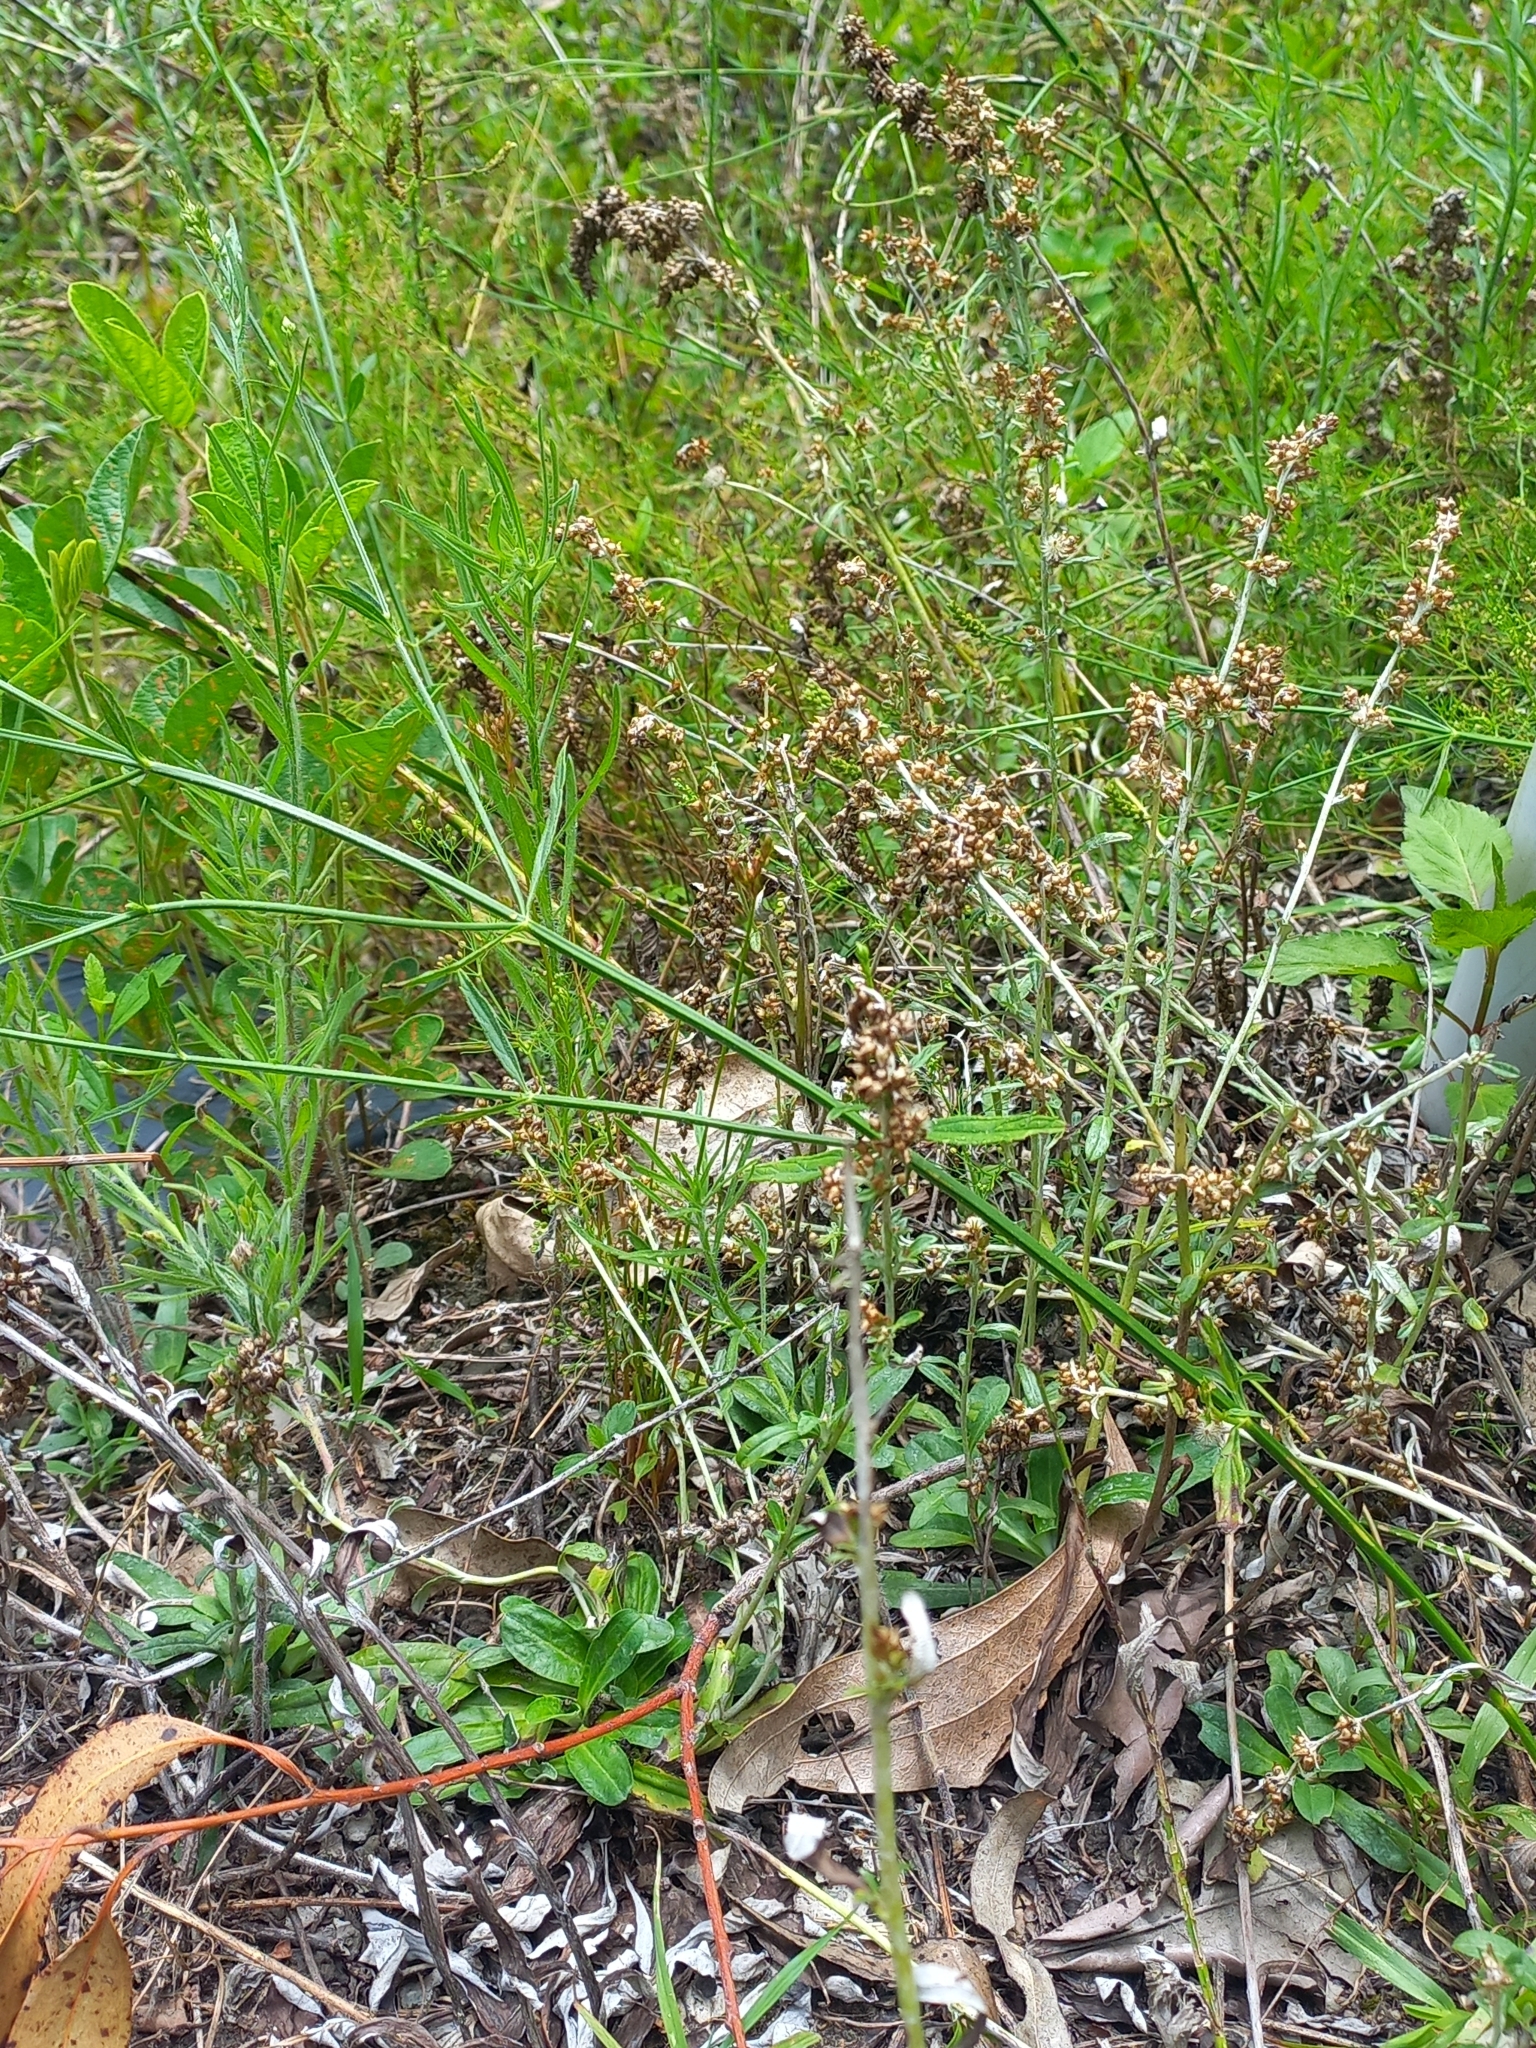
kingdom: Plantae
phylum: Tracheophyta
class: Magnoliopsida
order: Asterales
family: Asteraceae
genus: Gamochaeta
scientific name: Gamochaeta americana
